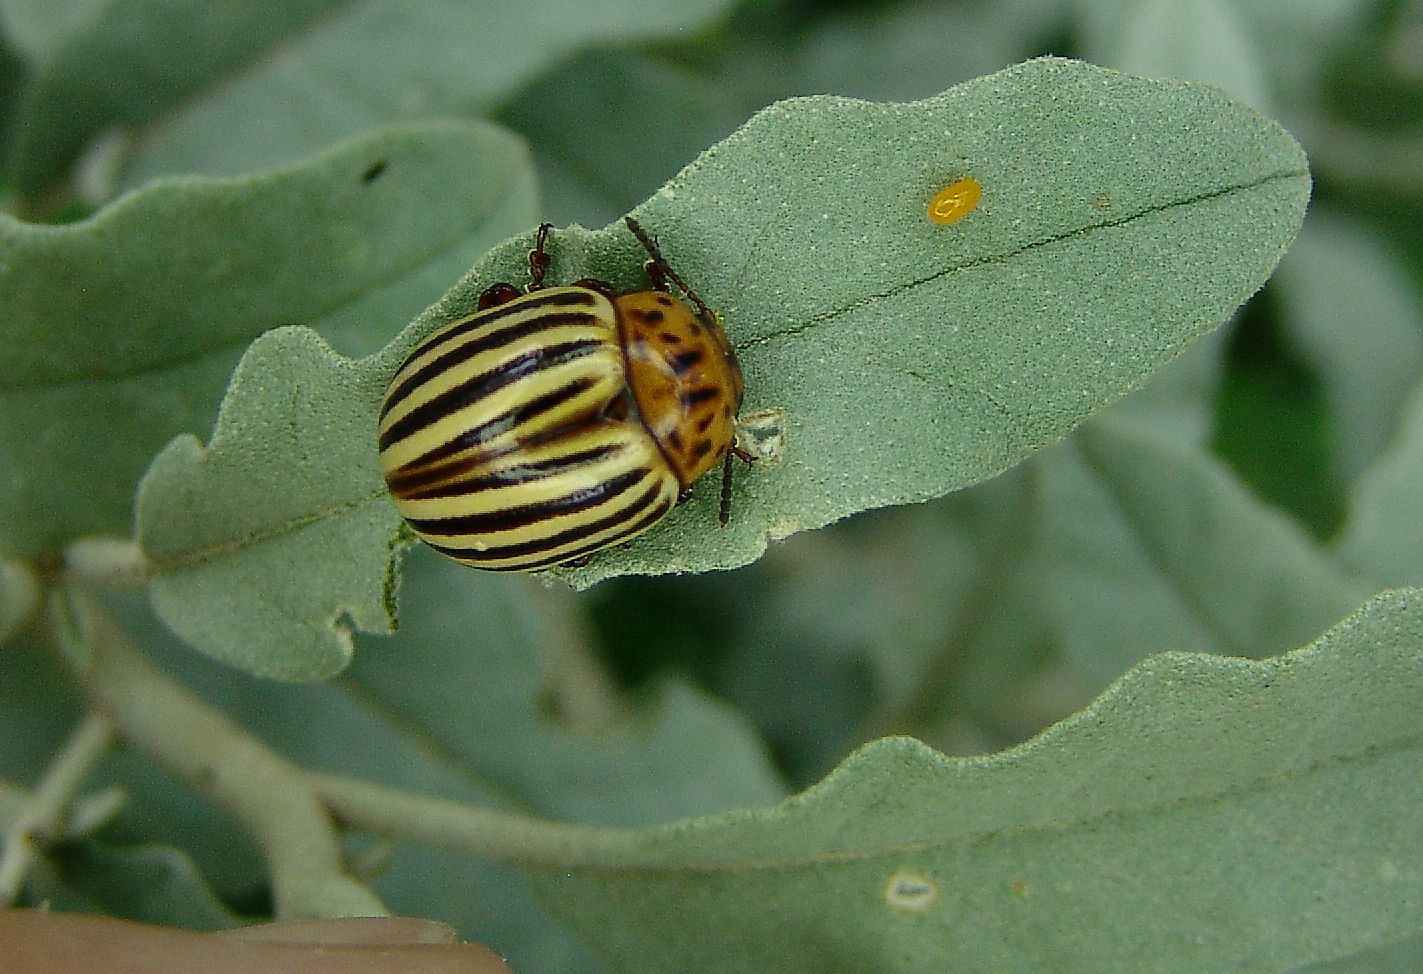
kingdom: Animalia
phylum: Arthropoda
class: Insecta
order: Coleoptera
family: Chrysomelidae
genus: Leptinotarsa
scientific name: Leptinotarsa decemlineata
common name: Colorado potato beetle
